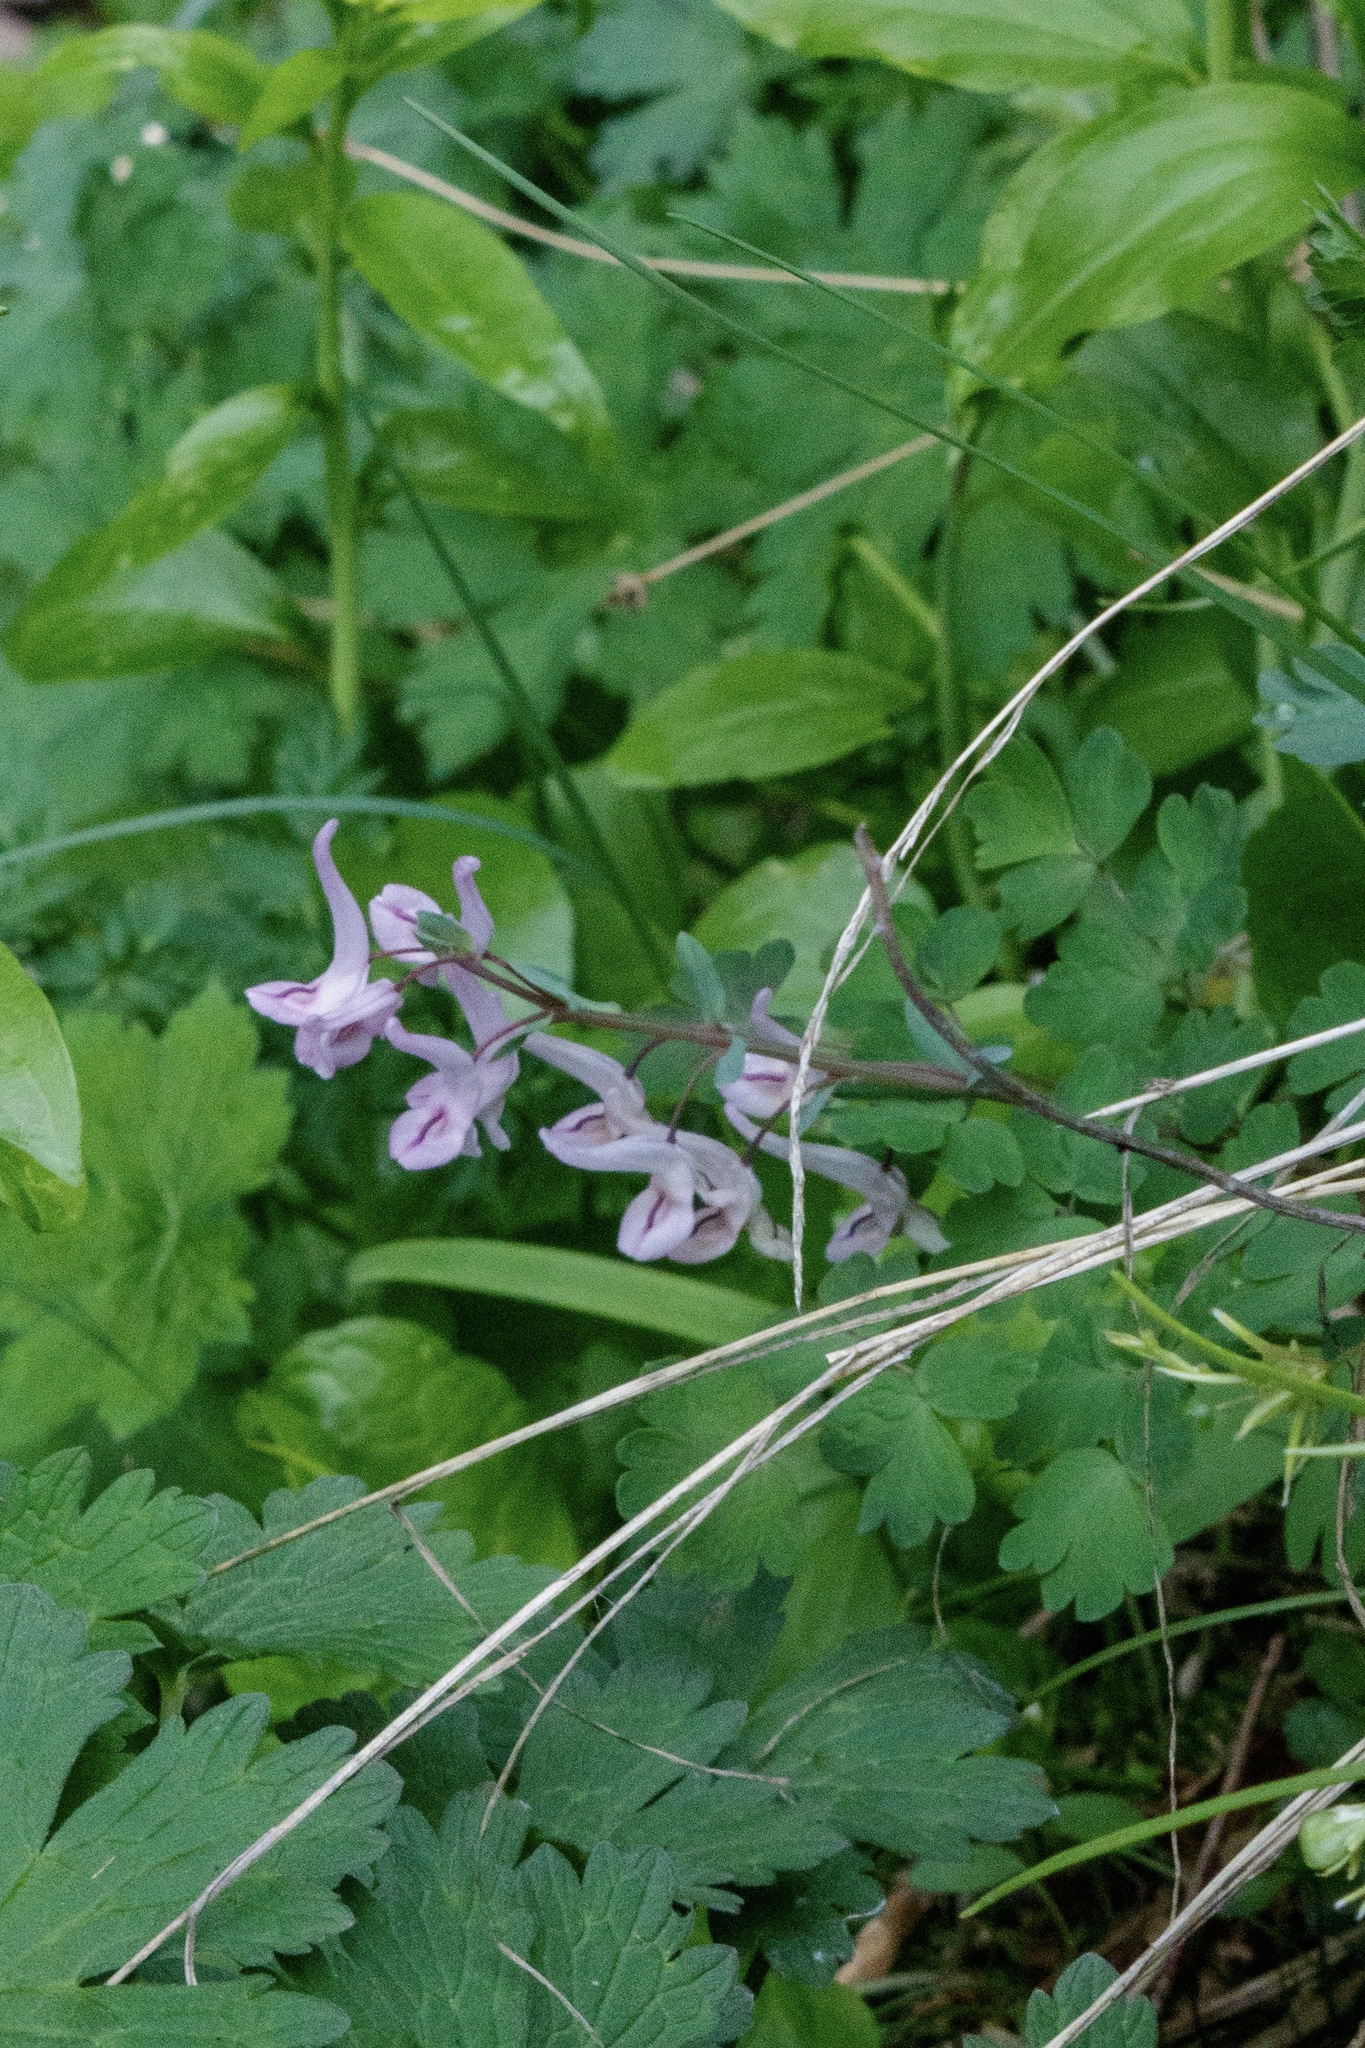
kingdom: Plantae
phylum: Tracheophyta
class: Magnoliopsida
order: Ranunculales
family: Papaveraceae
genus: Corydalis
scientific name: Corydalis glaucescens
